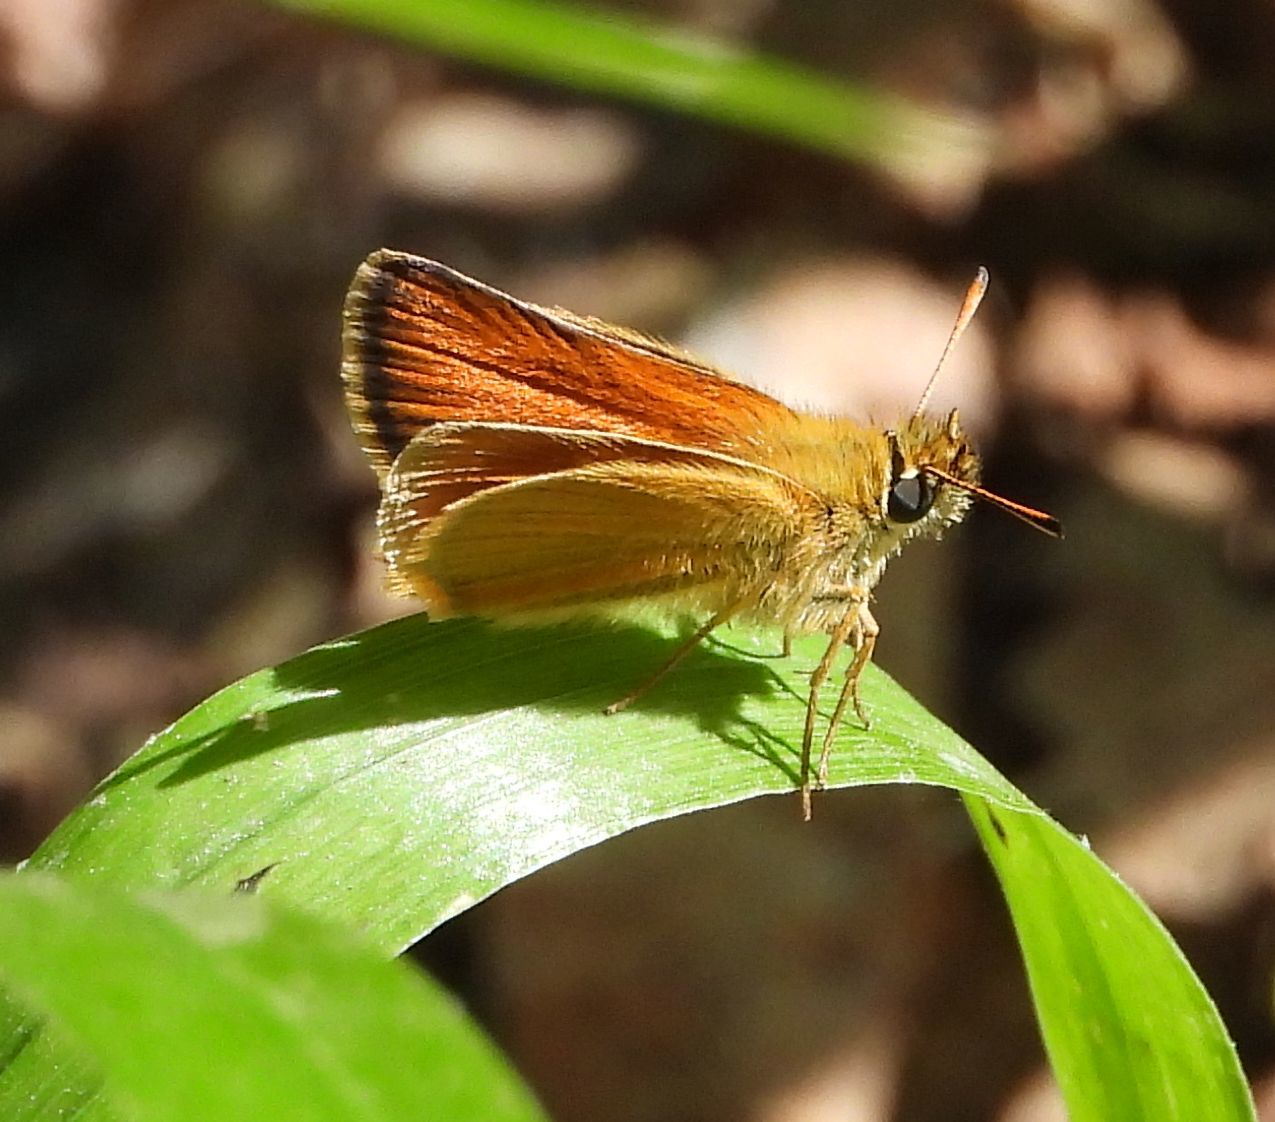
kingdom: Animalia
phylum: Arthropoda
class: Insecta
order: Lepidoptera
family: Hesperiidae
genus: Thymelicus
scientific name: Thymelicus lineola
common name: Essex skipper
